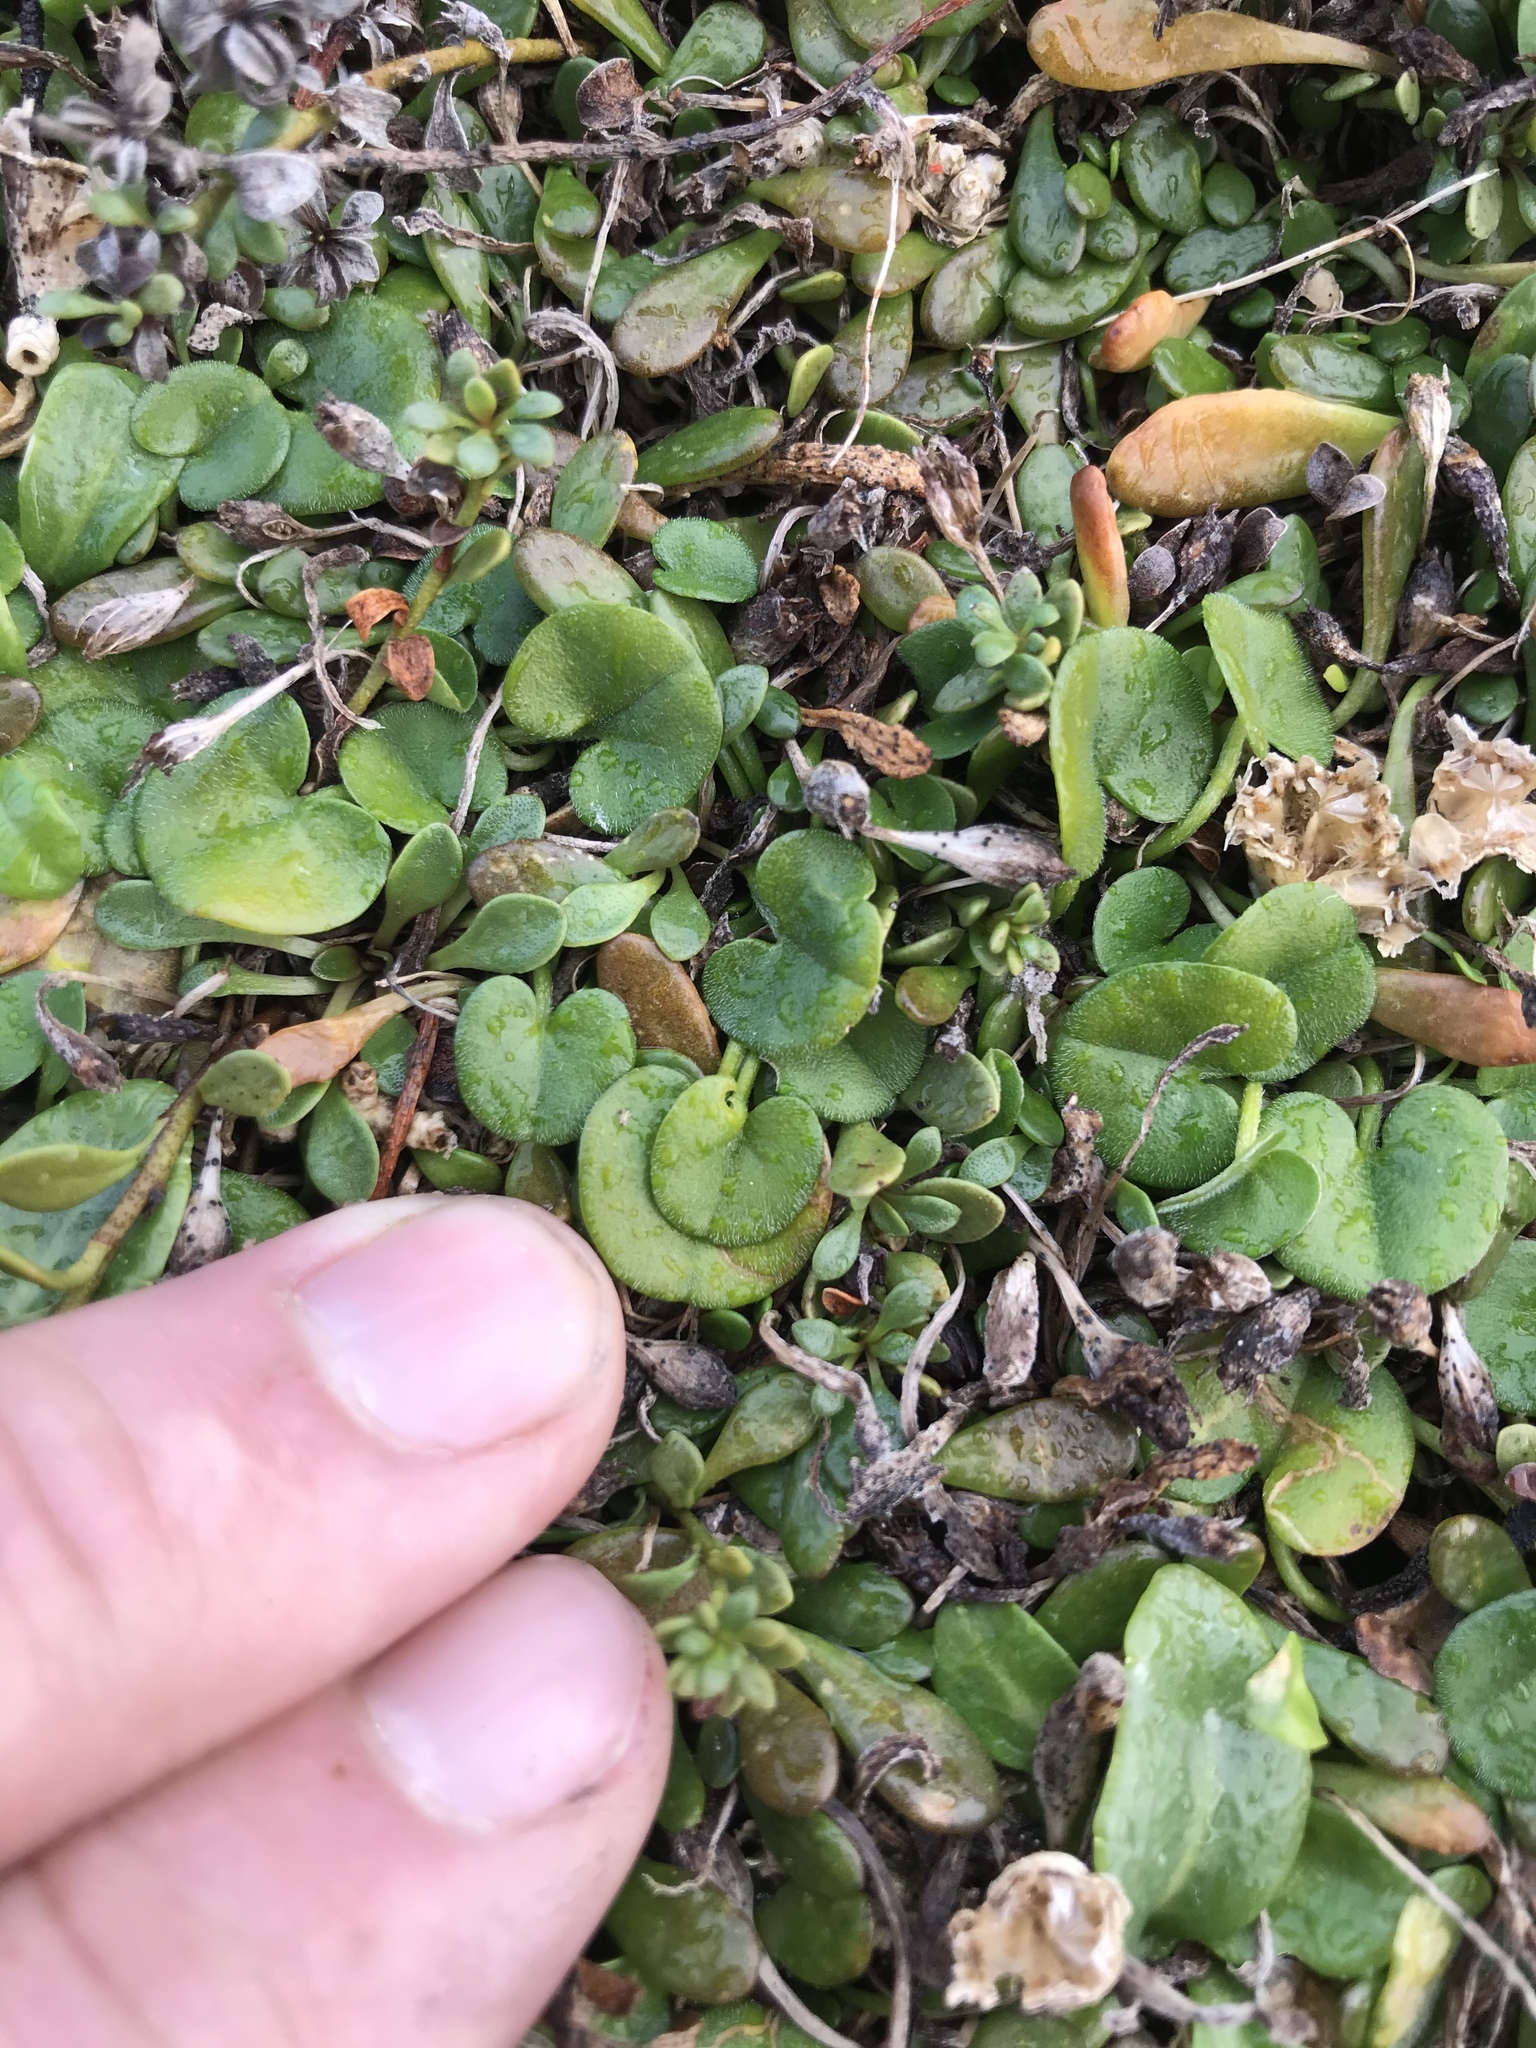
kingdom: Plantae
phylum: Tracheophyta
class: Magnoliopsida
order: Solanales
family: Convolvulaceae
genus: Dichondra
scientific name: Dichondra brevifolia
